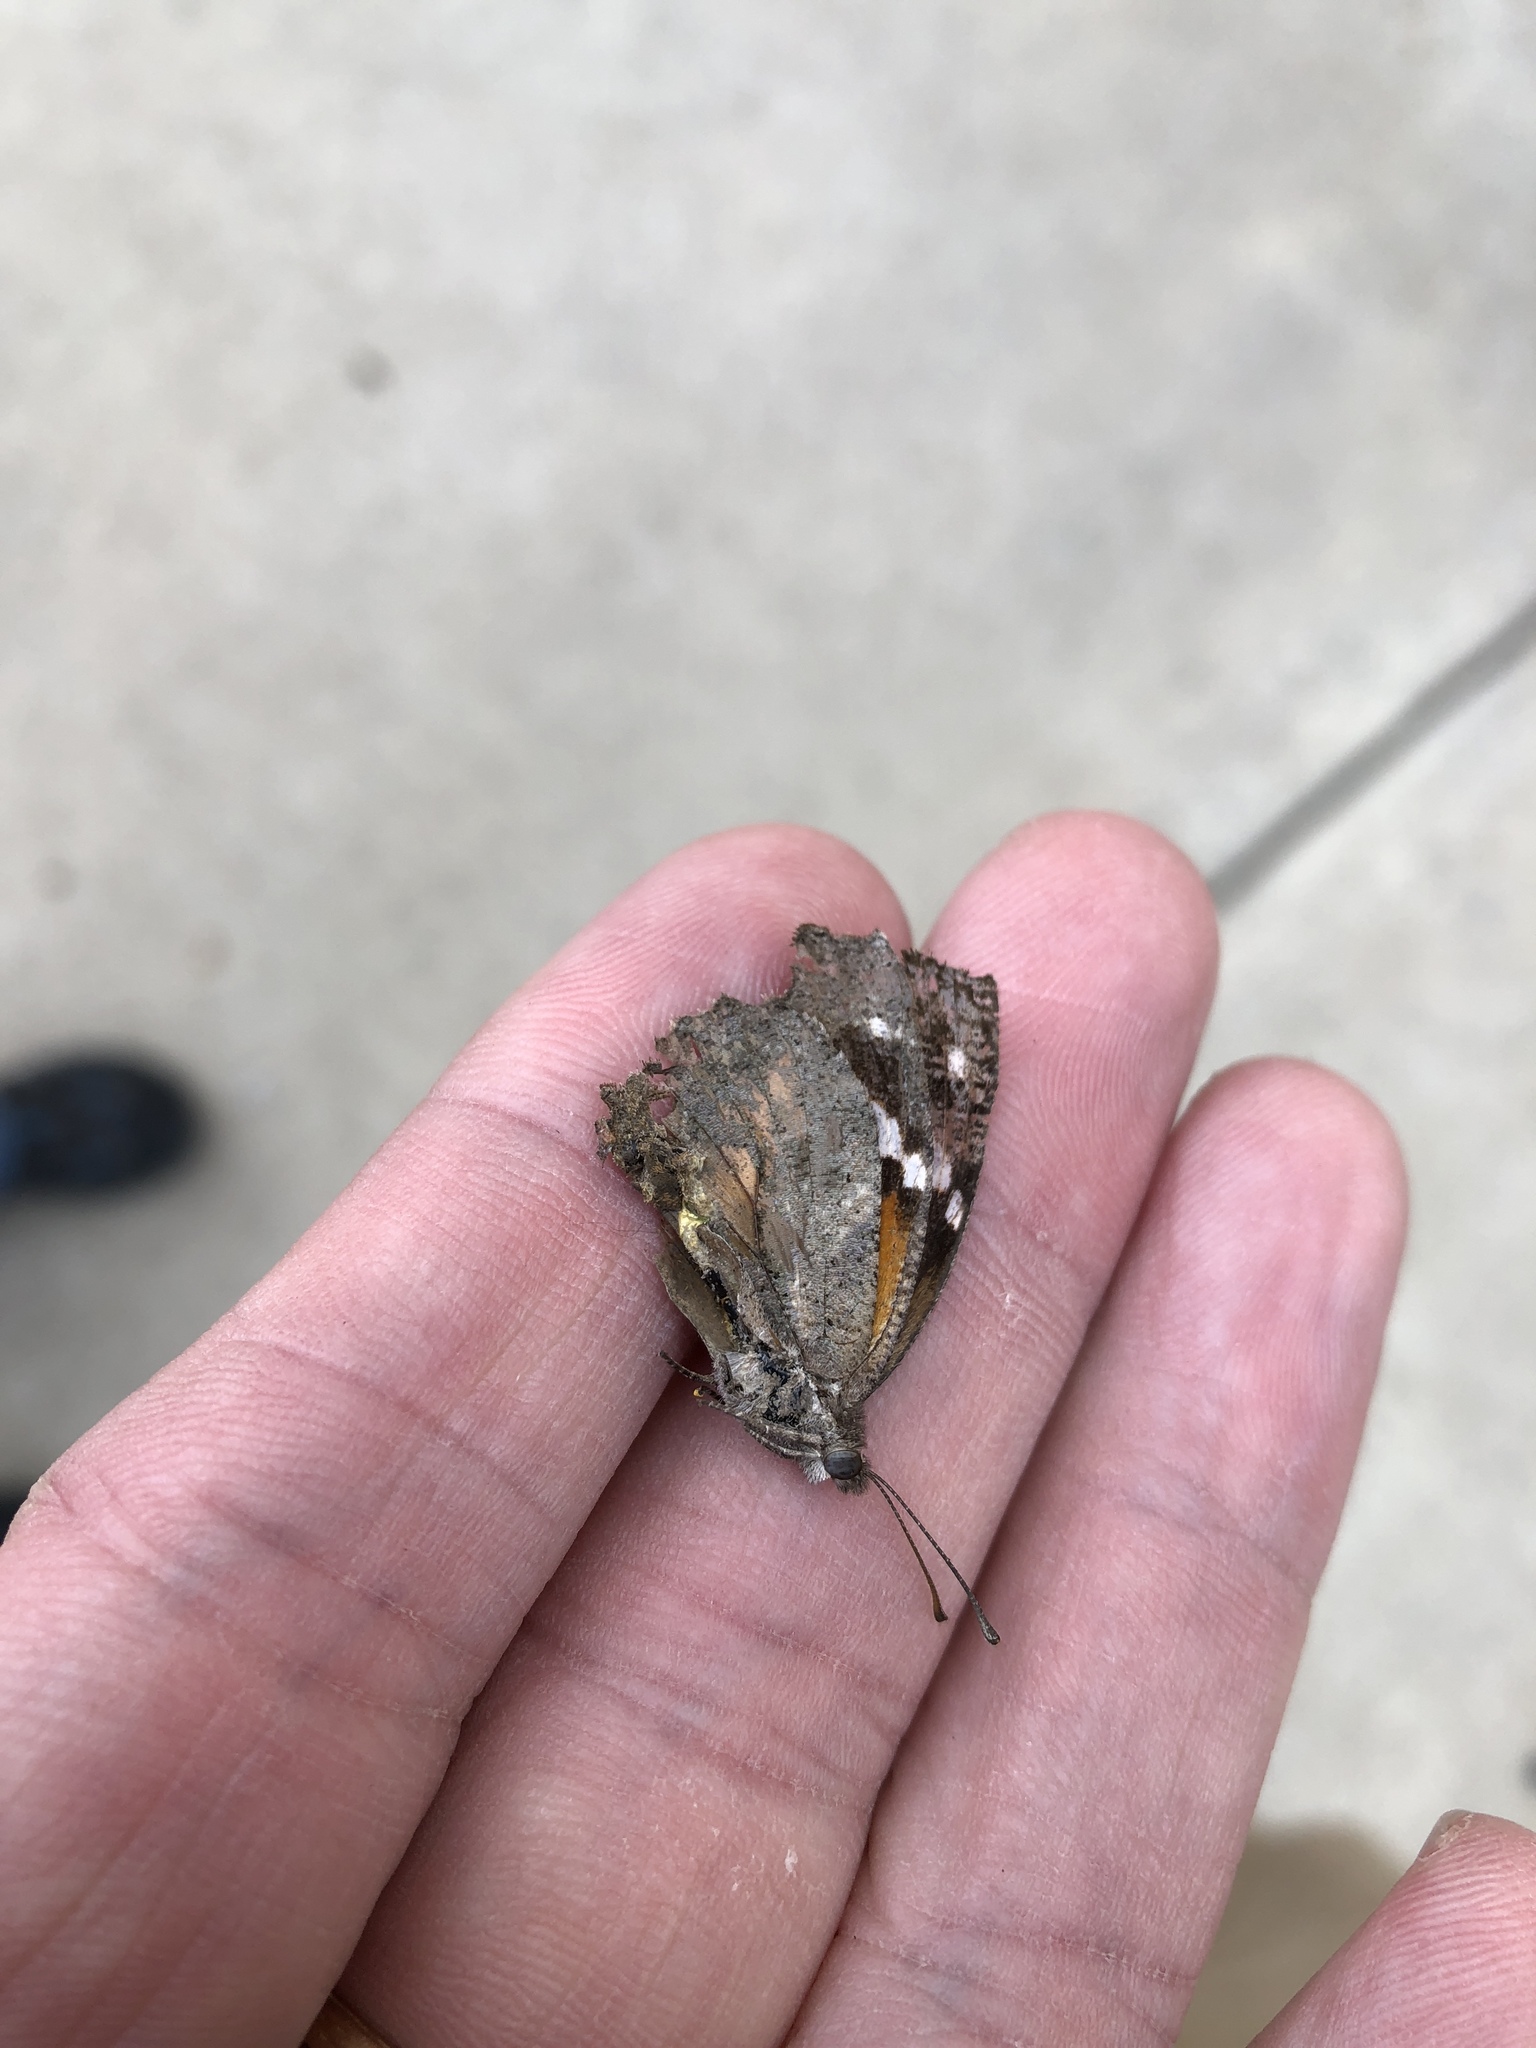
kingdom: Animalia
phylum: Arthropoda
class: Insecta
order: Lepidoptera
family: Nymphalidae
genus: Libytheana
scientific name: Libytheana carinenta
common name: American snout
